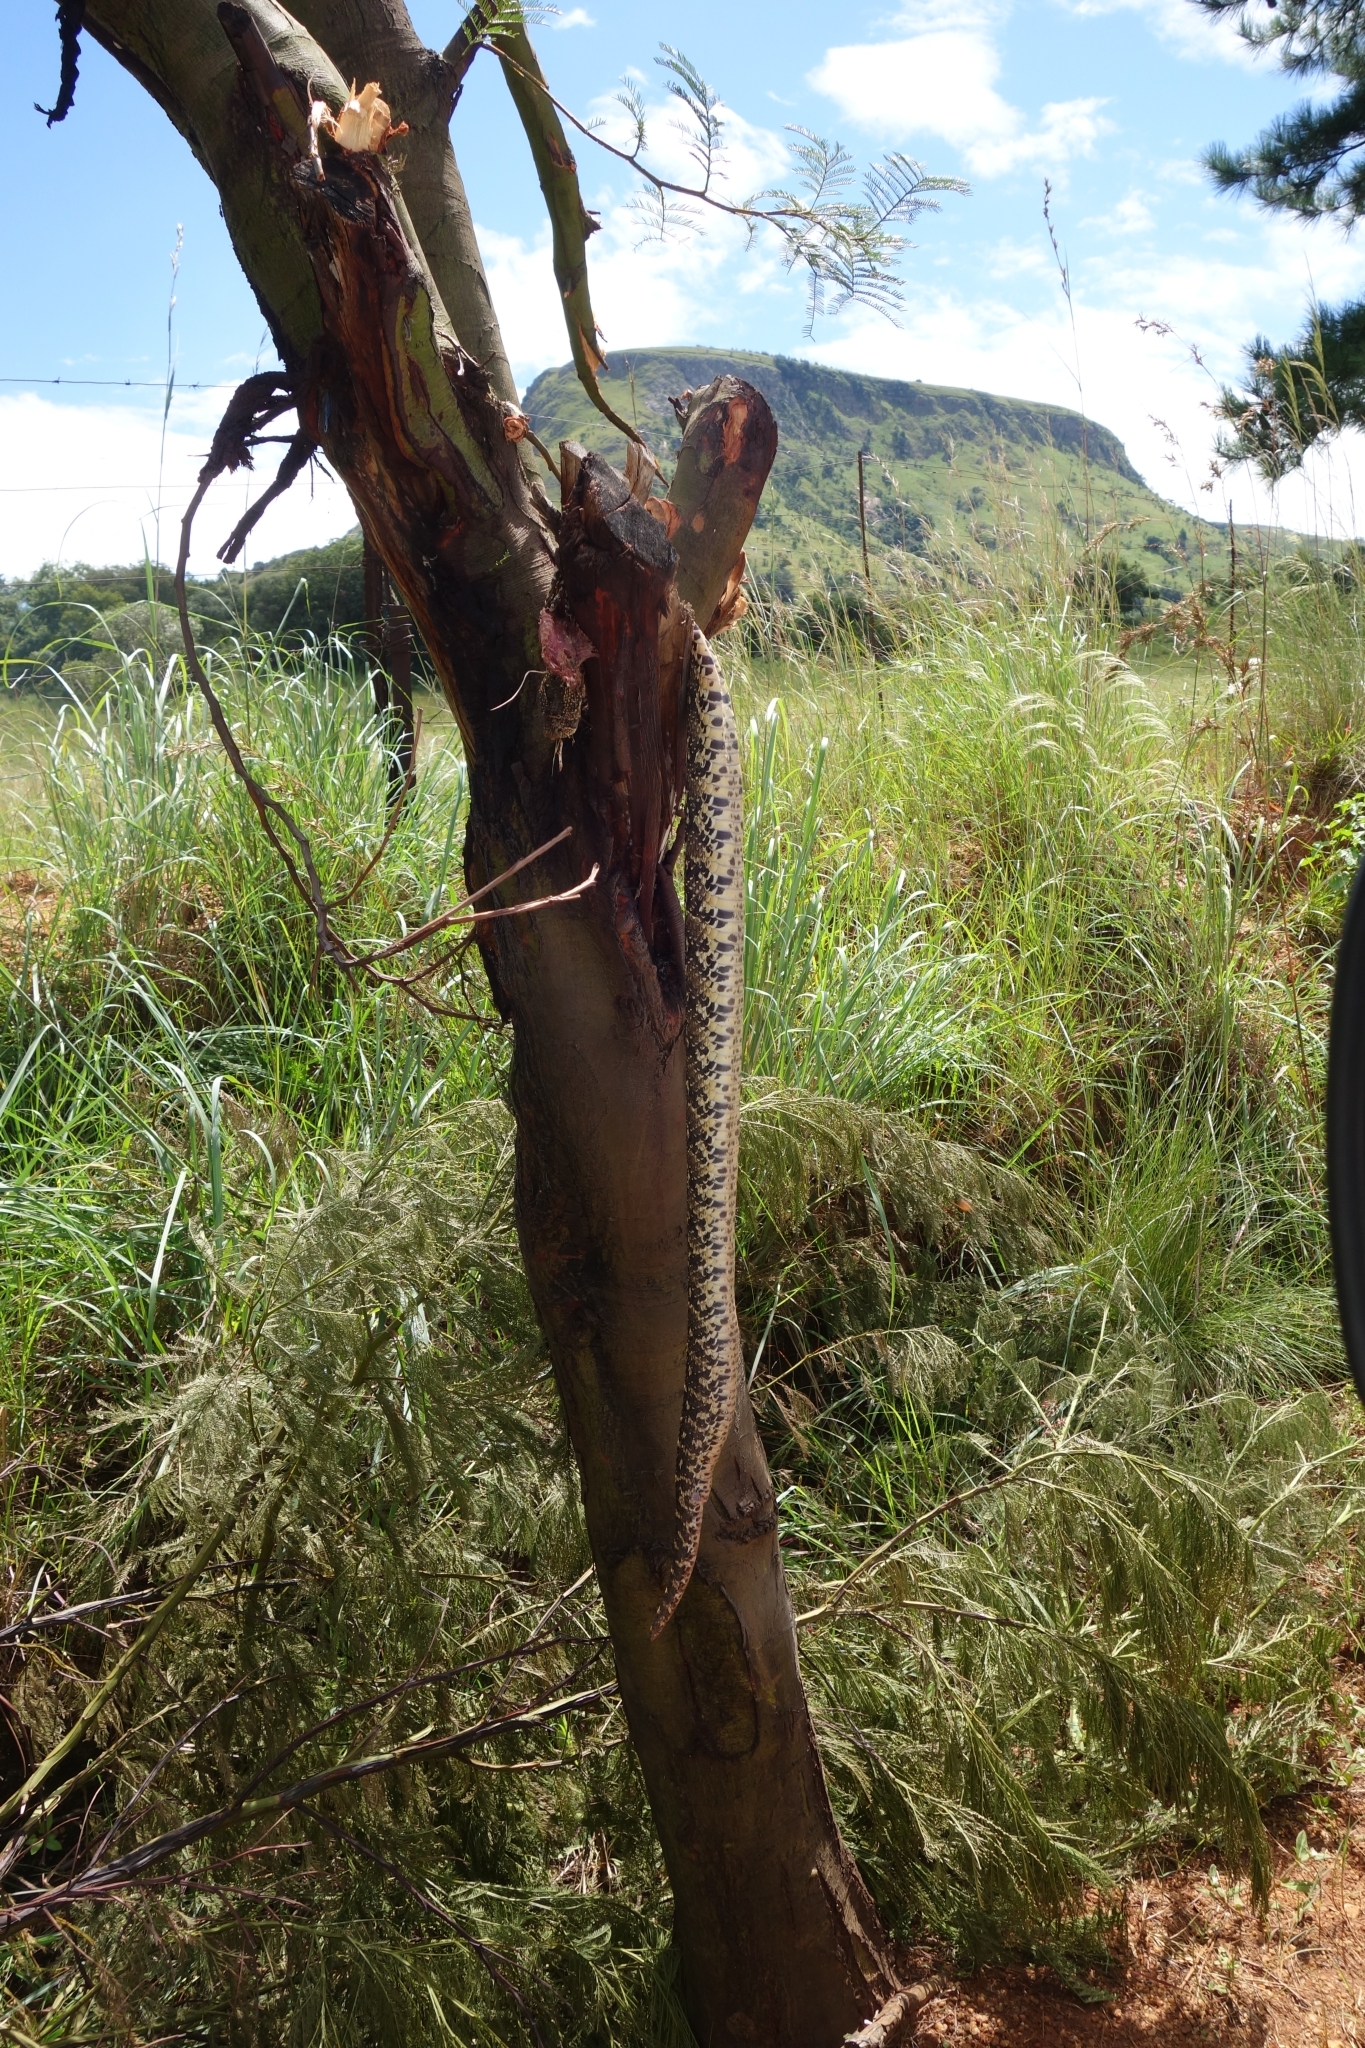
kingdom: Animalia
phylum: Chordata
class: Squamata
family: Viperidae
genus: Bitis
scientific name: Bitis arietans
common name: Puff adder
